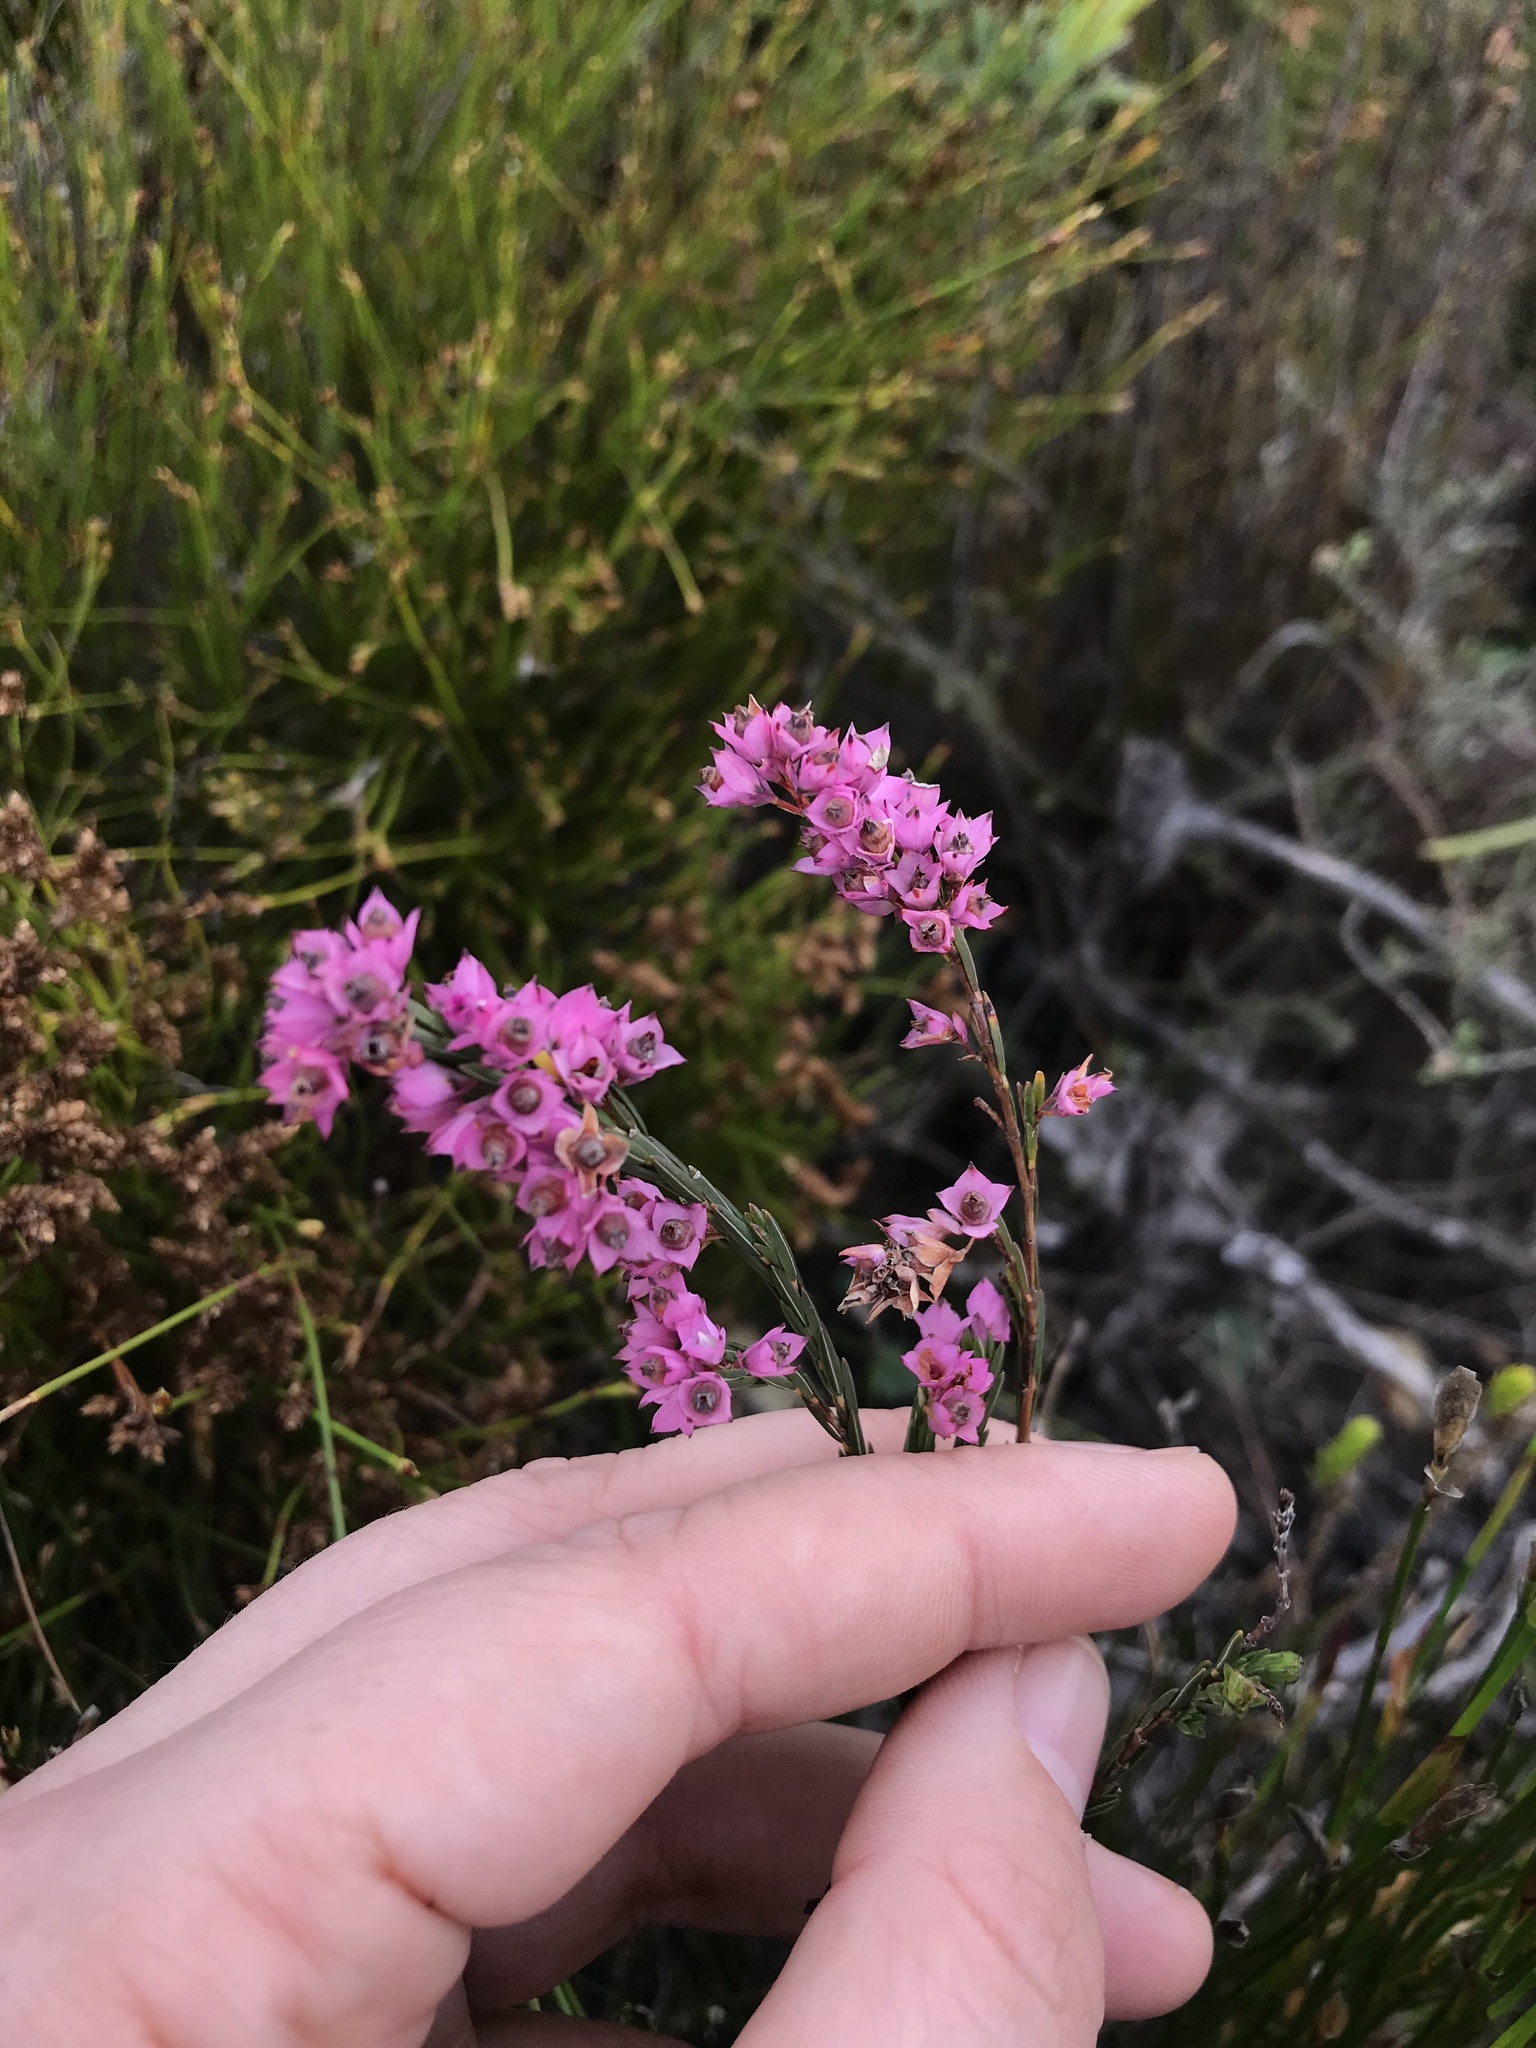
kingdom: Plantae
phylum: Tracheophyta
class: Magnoliopsida
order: Ericales
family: Ericaceae
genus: Erica
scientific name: Erica corifolia
